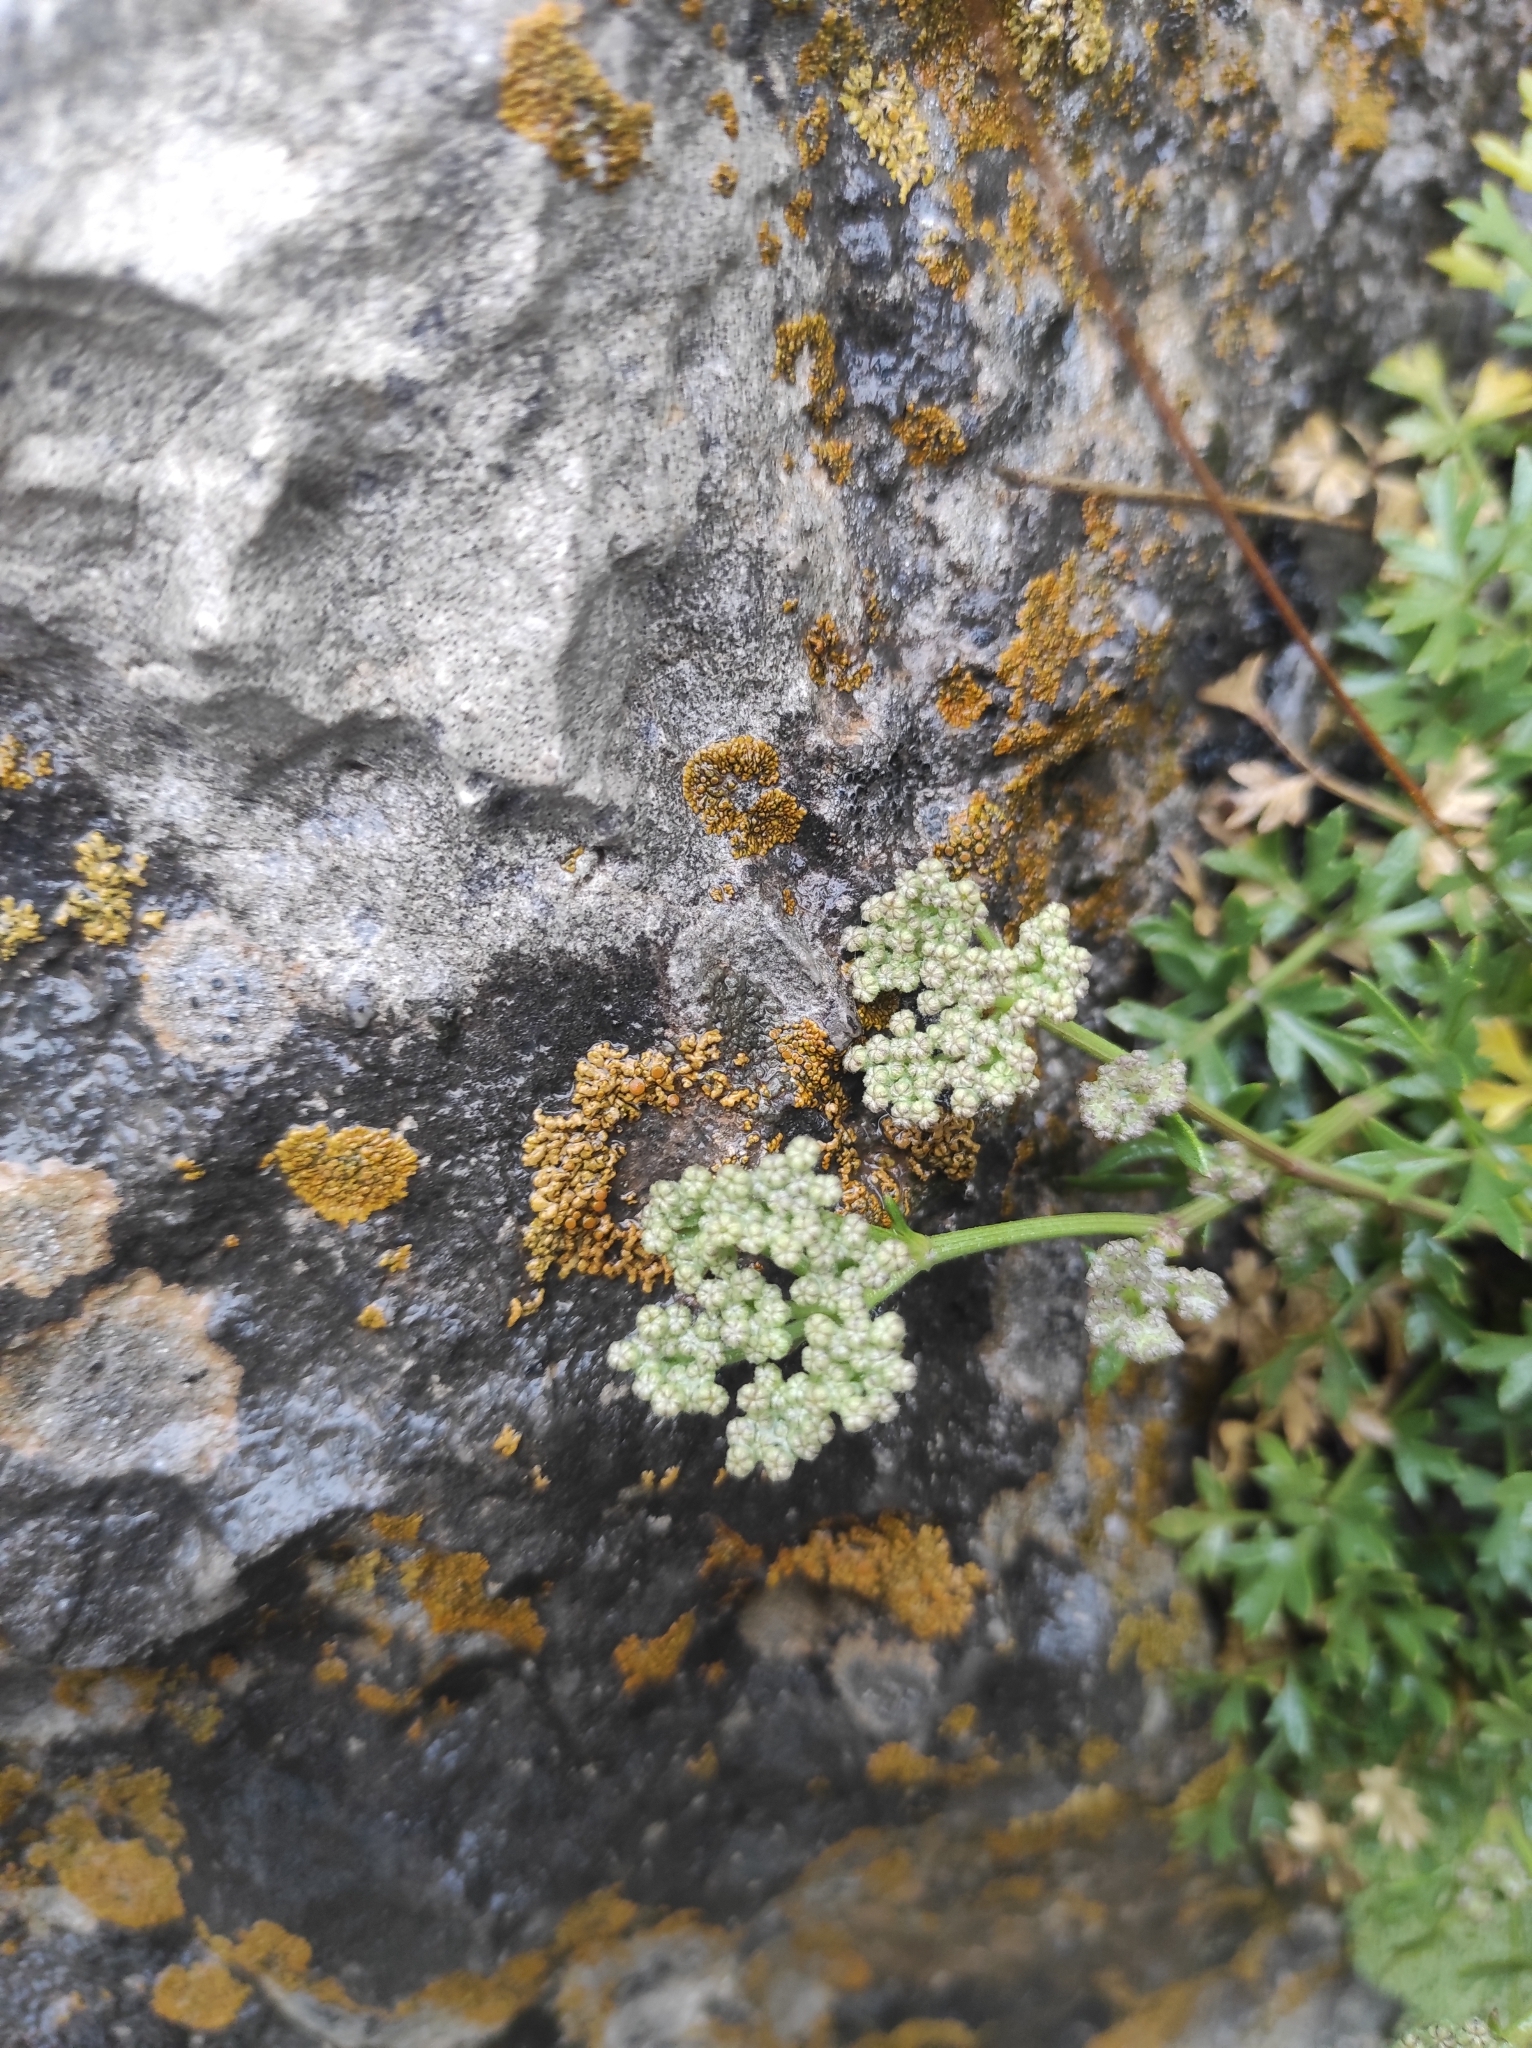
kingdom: Plantae
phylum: Tracheophyta
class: Magnoliopsida
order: Apiales
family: Apiaceae
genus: Seseli
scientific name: Seseli olivieri
